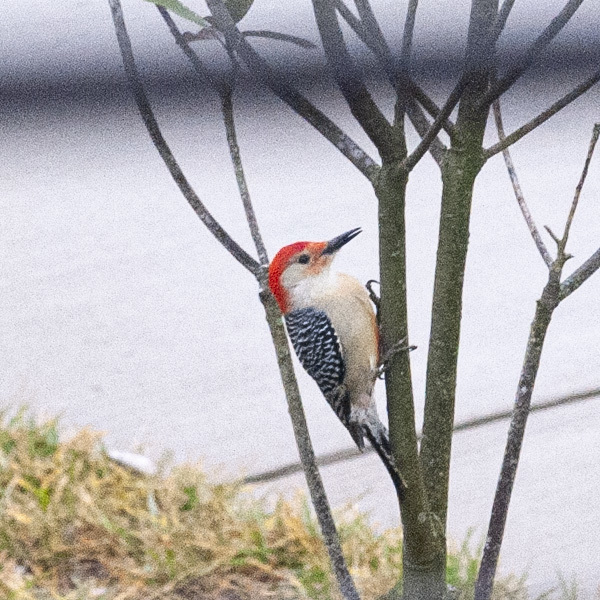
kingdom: Animalia
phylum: Chordata
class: Aves
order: Piciformes
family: Picidae
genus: Melanerpes
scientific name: Melanerpes carolinus
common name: Red-bellied woodpecker
